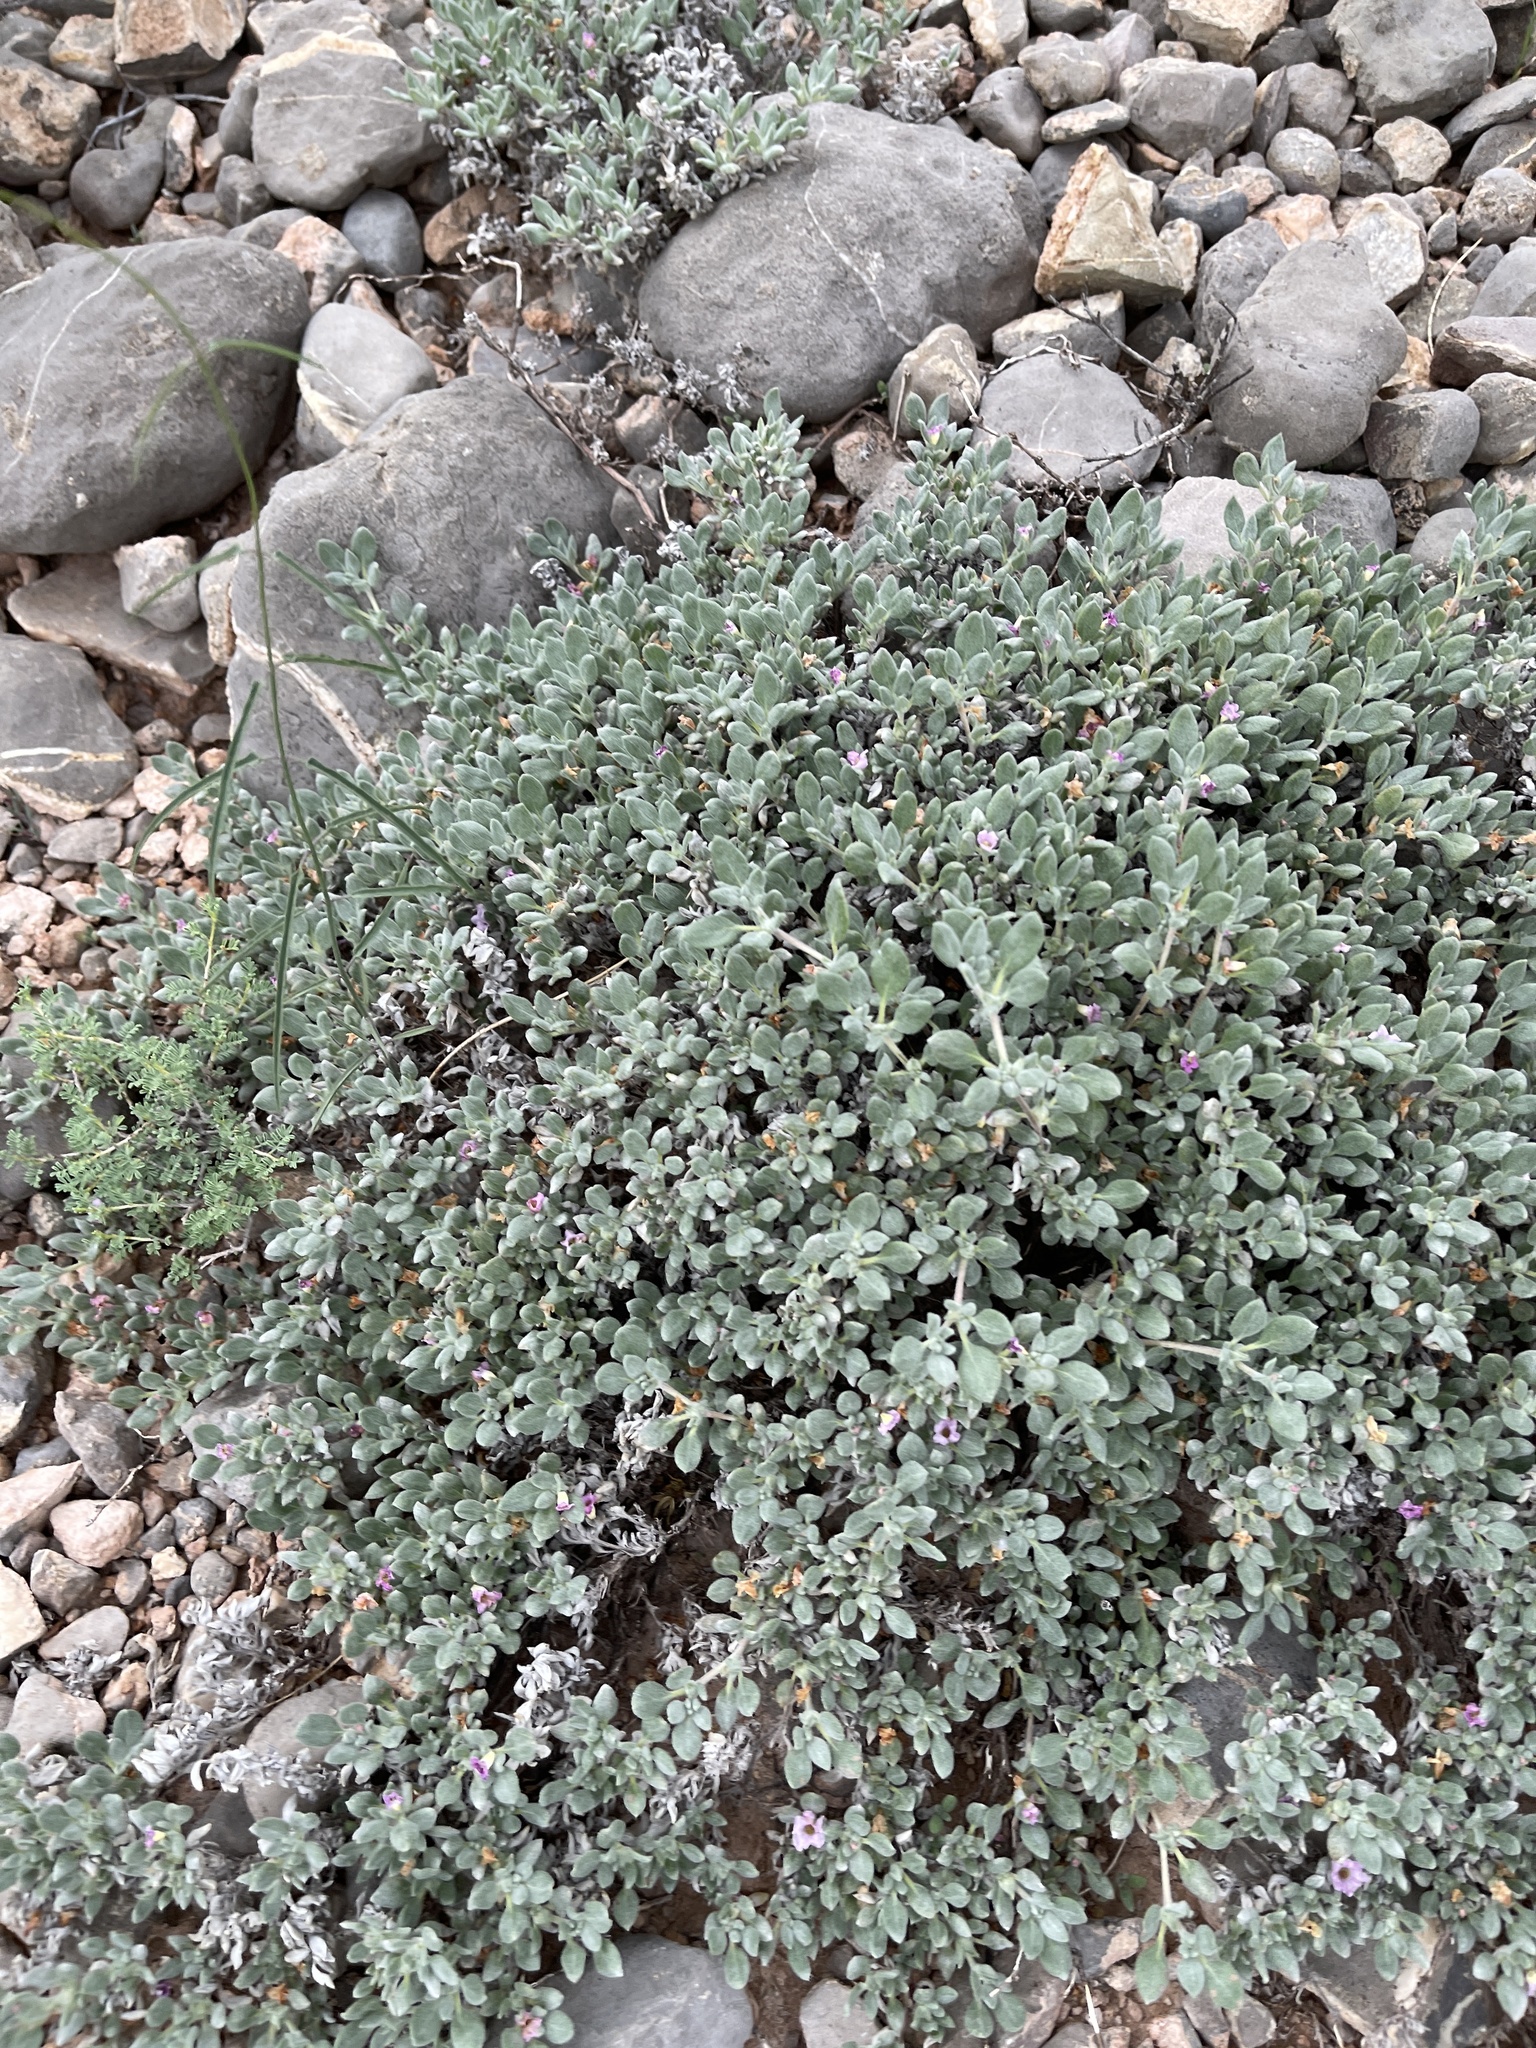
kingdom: Plantae
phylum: Tracheophyta
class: Magnoliopsida
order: Boraginales
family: Ehretiaceae
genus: Tiquilia
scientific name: Tiquilia canescens
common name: Hairy tiquilia
